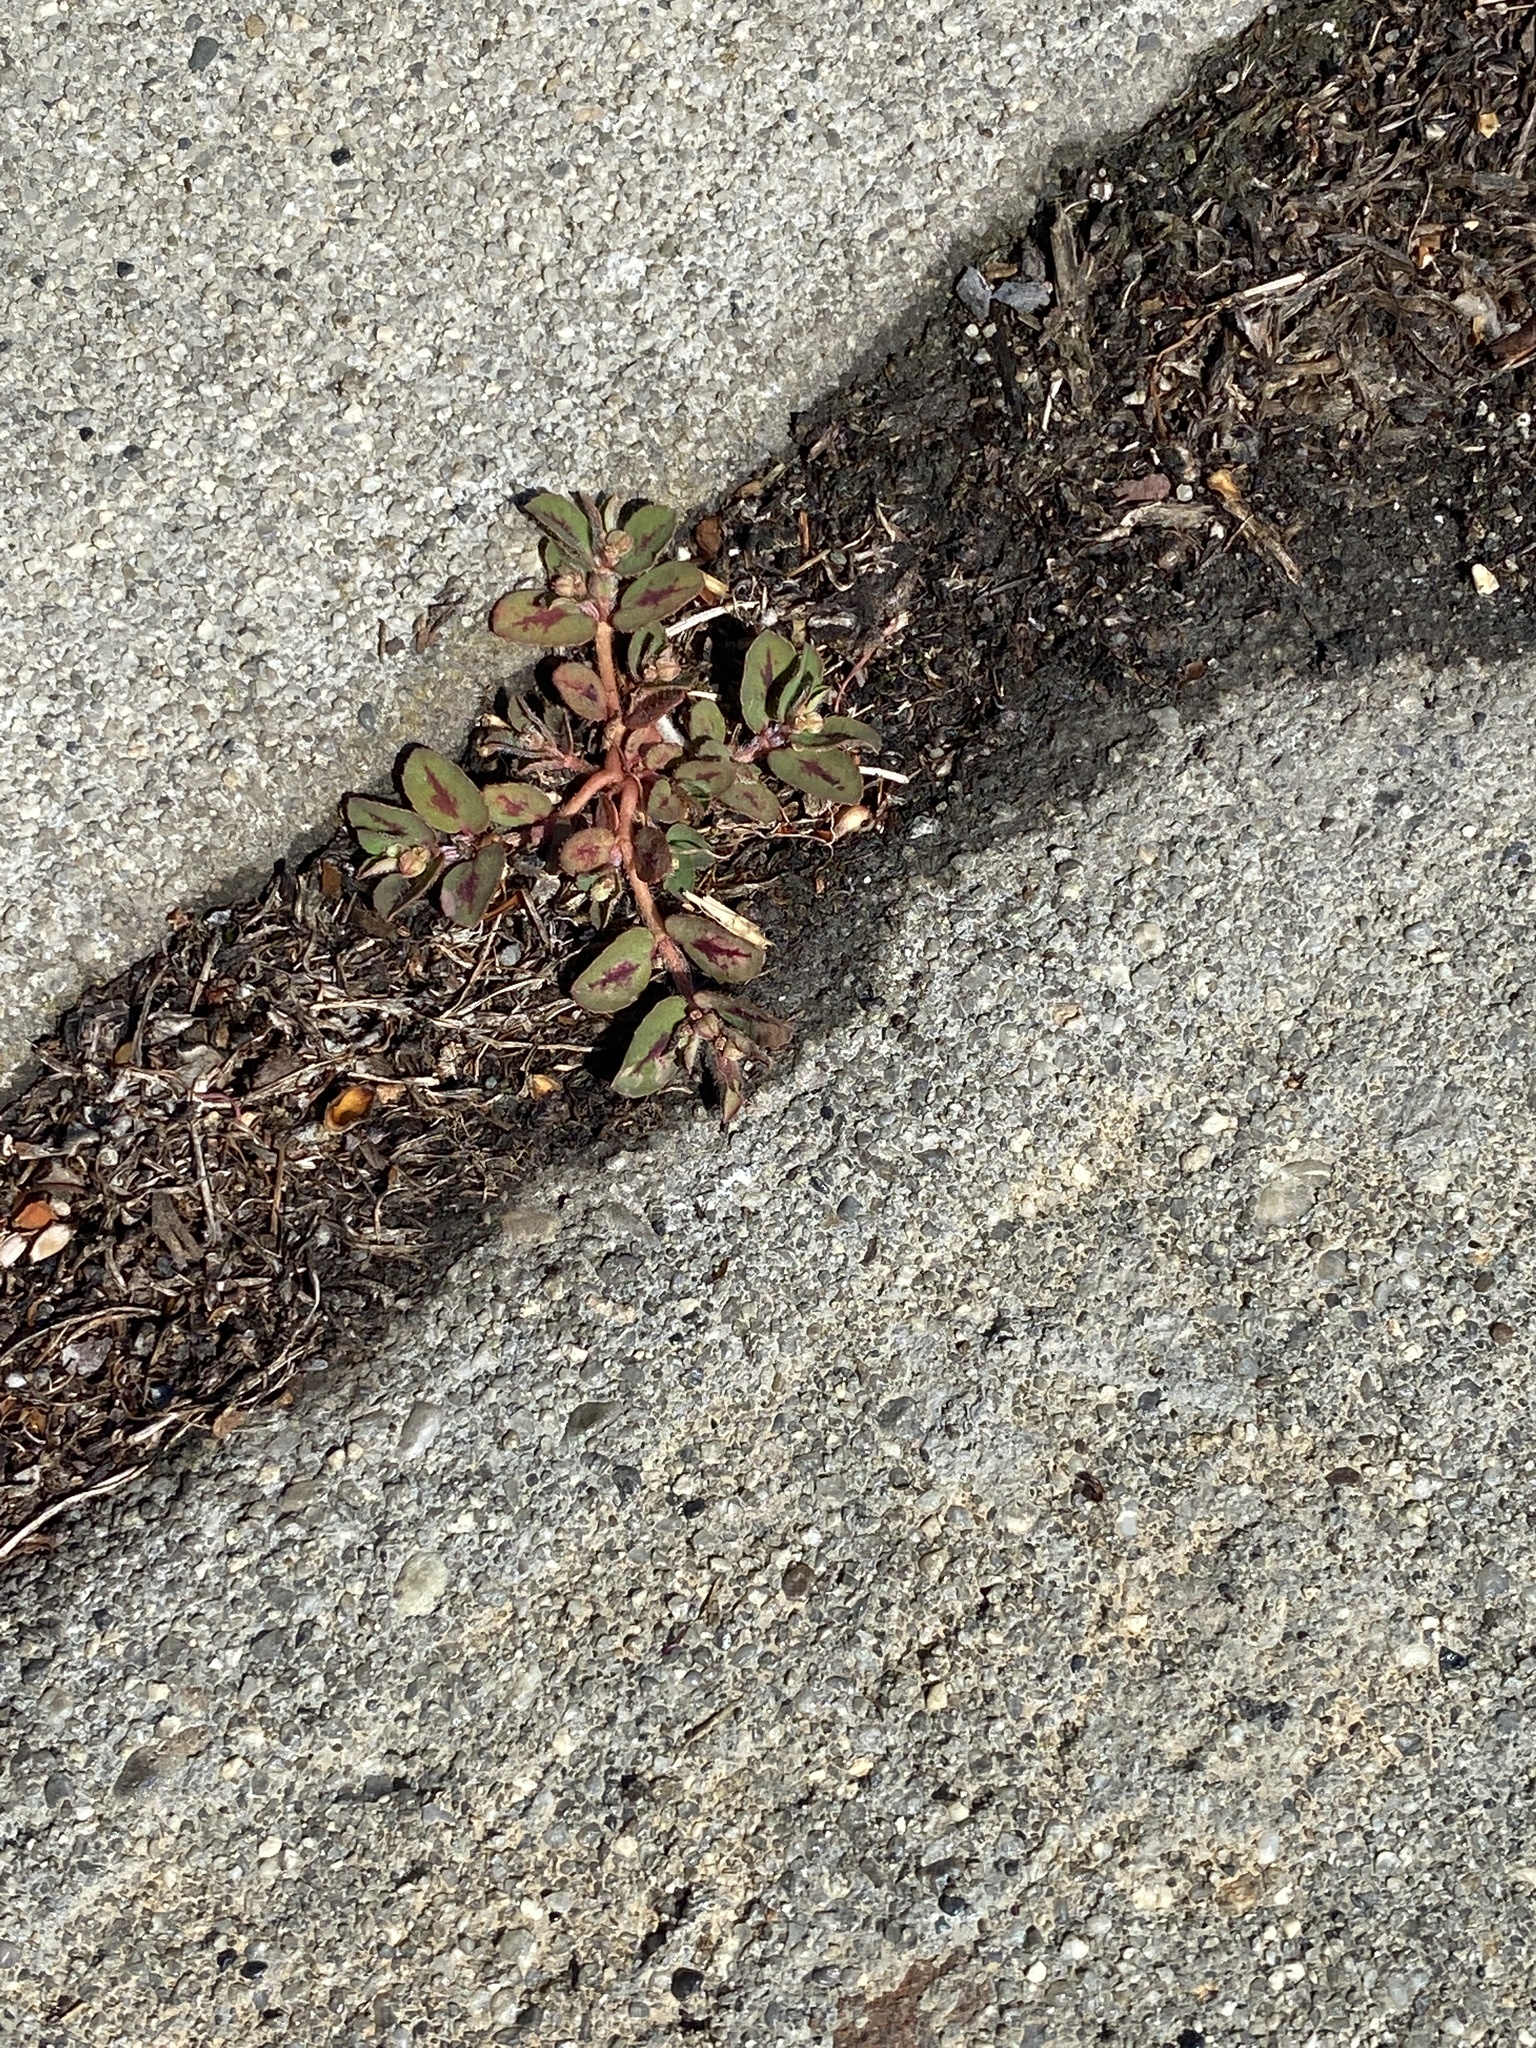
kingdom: Plantae
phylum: Tracheophyta
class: Magnoliopsida
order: Malpighiales
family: Euphorbiaceae
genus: Euphorbia
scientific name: Euphorbia maculata
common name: Spotted spurge
